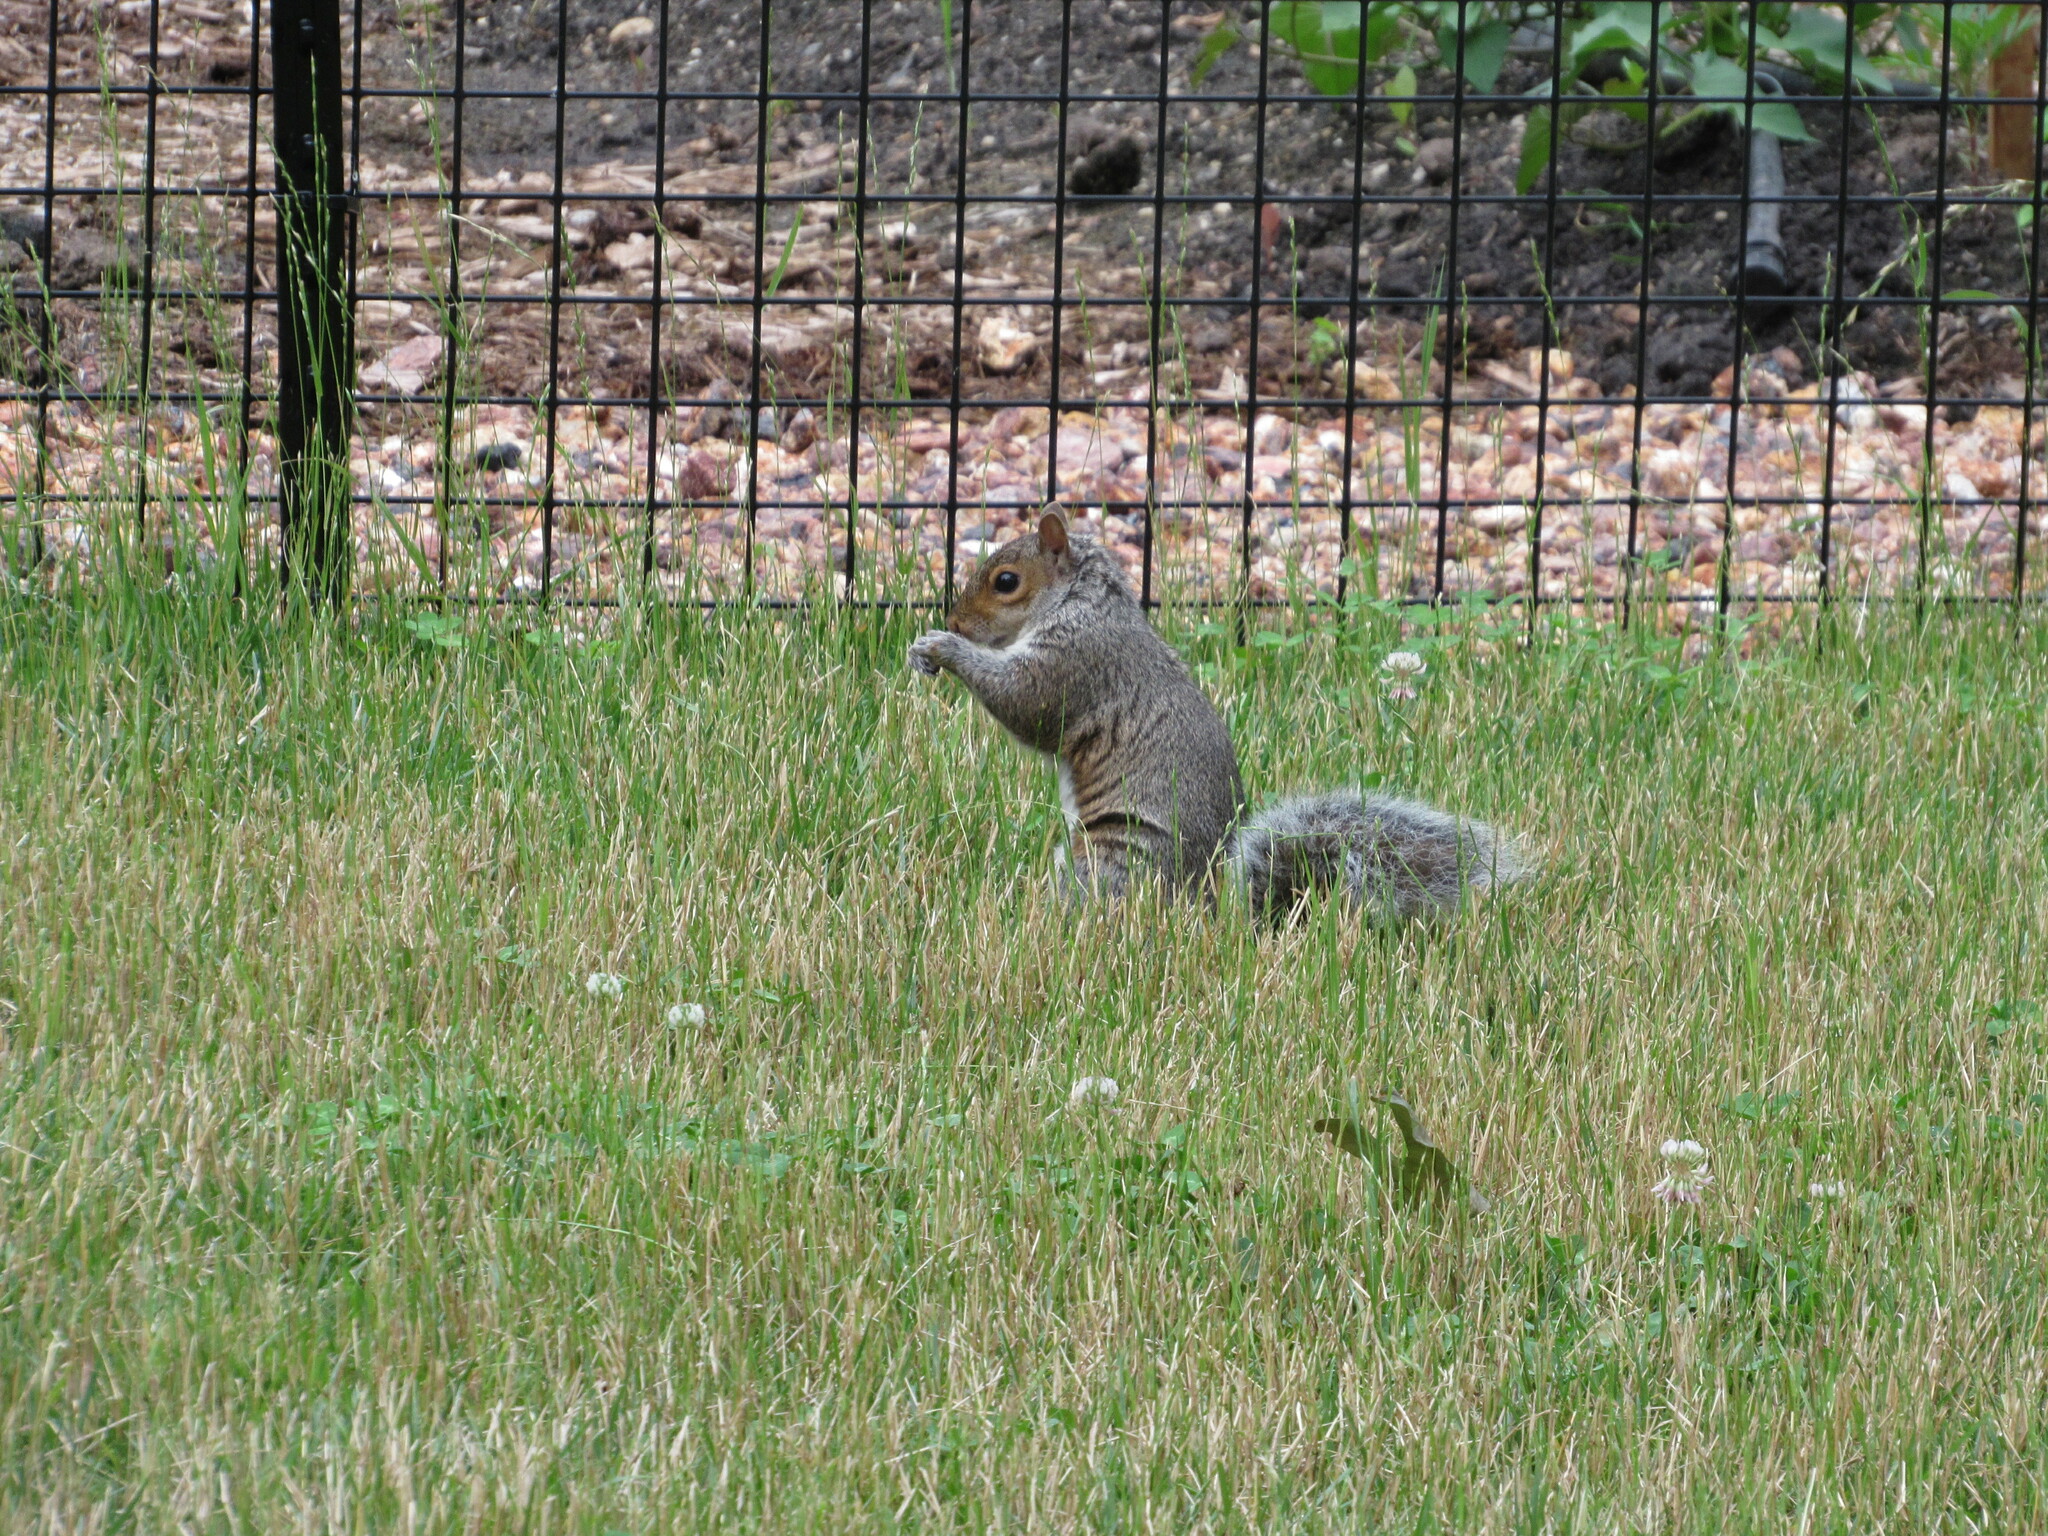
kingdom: Animalia
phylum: Chordata
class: Mammalia
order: Rodentia
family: Sciuridae
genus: Sciurus
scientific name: Sciurus carolinensis
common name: Eastern gray squirrel
